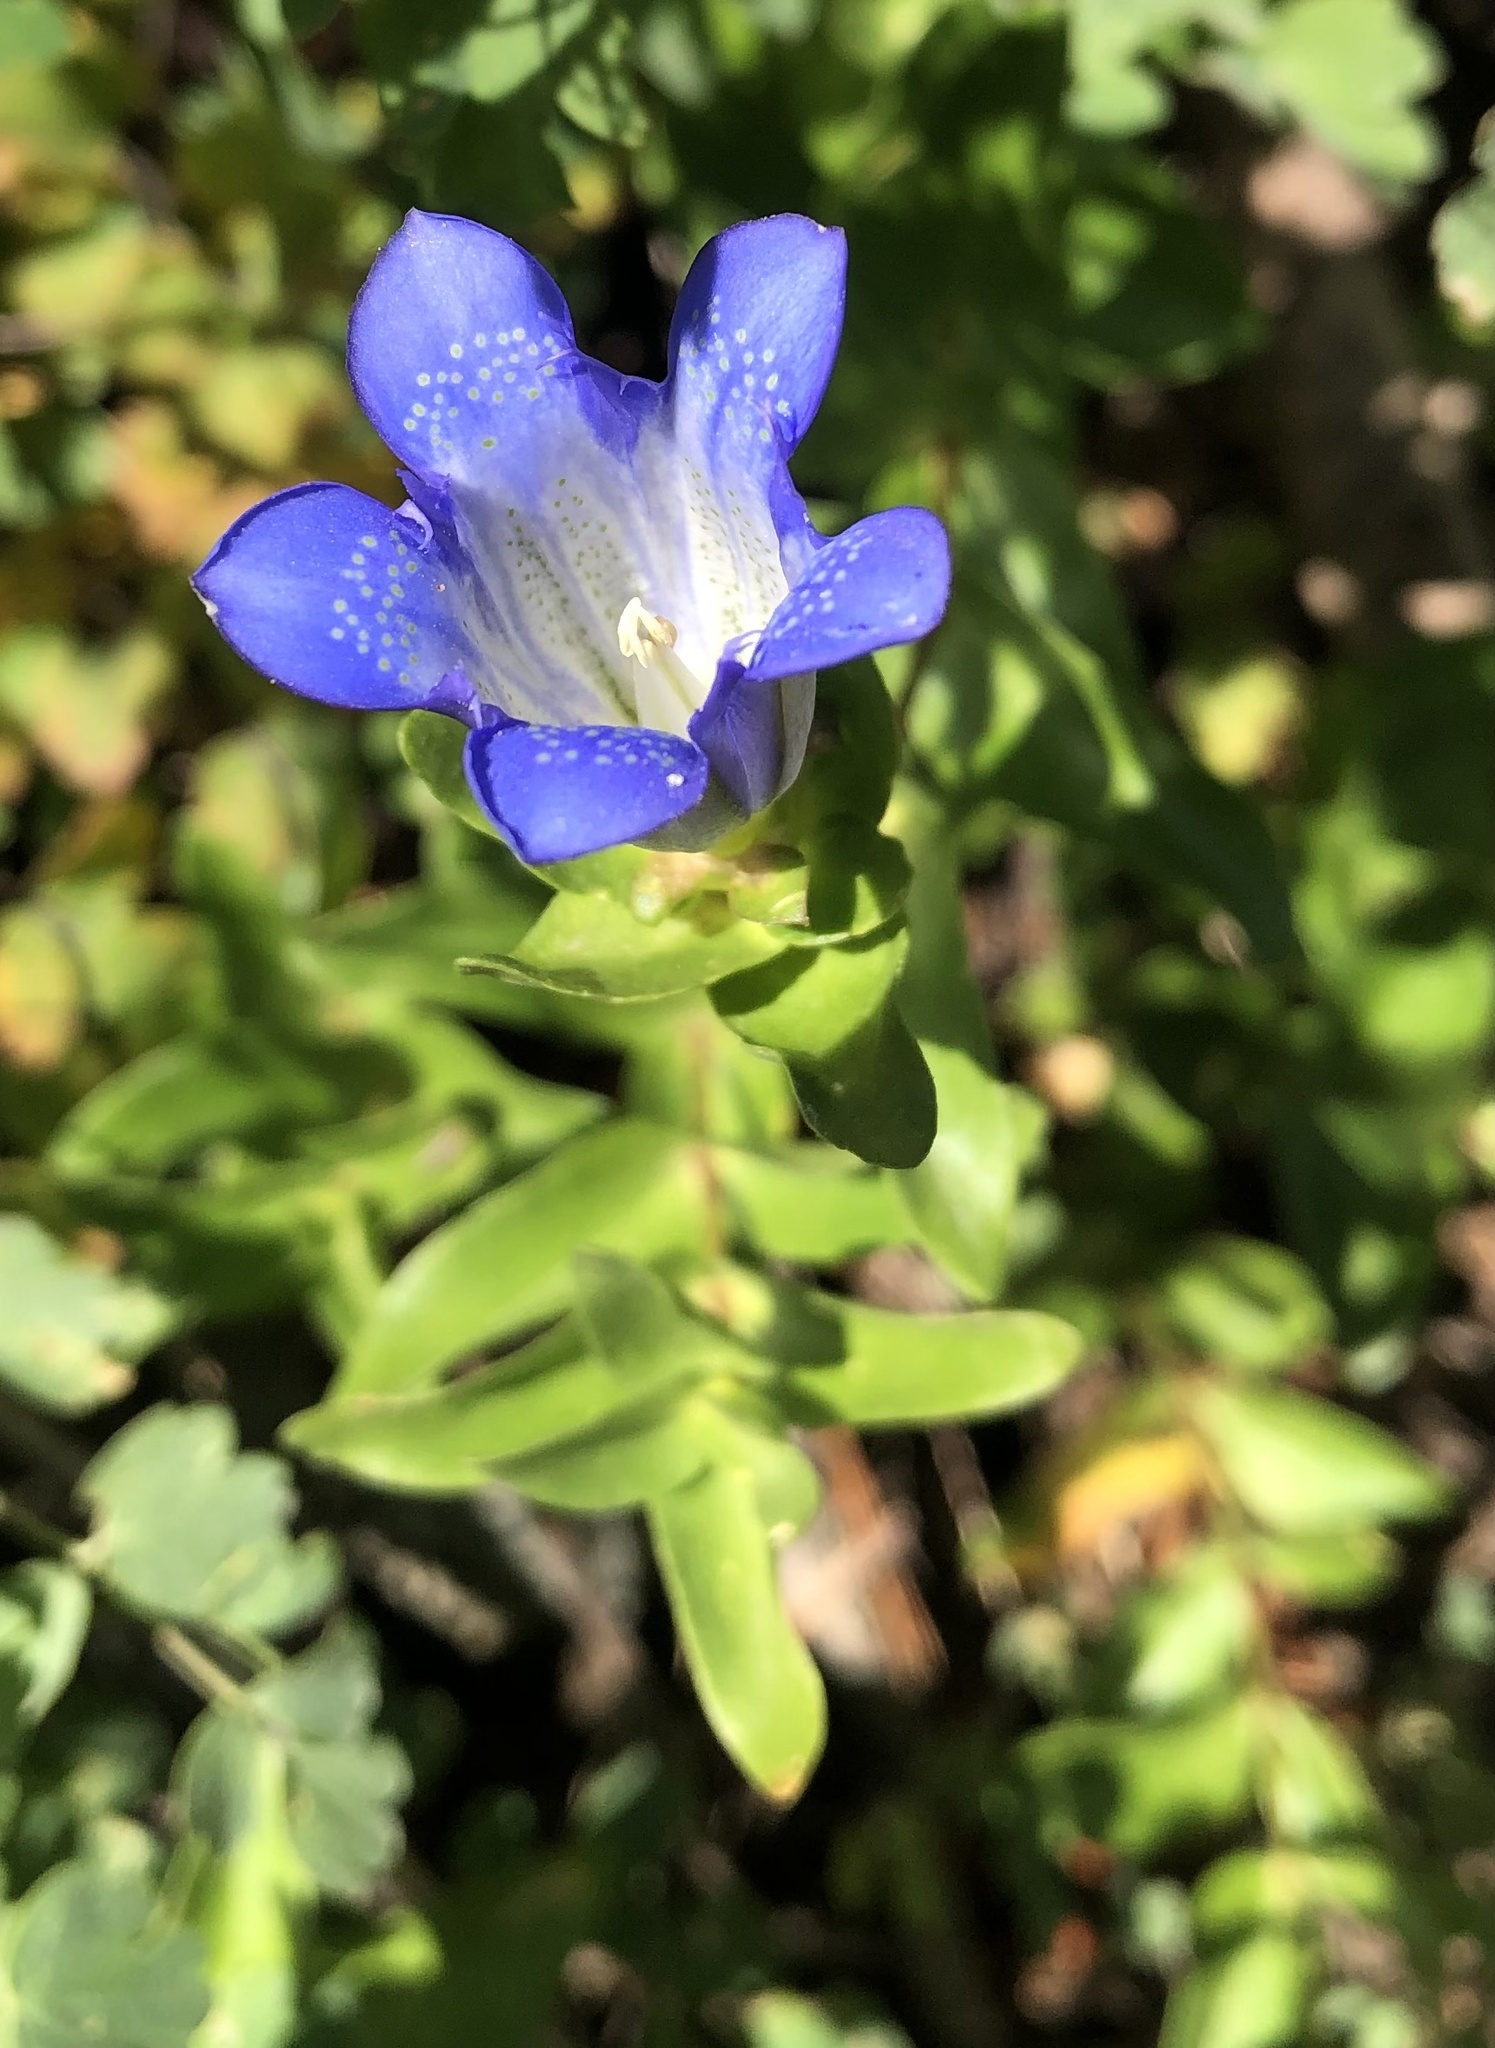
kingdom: Plantae
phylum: Tracheophyta
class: Magnoliopsida
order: Gentianales
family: Gentianaceae
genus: Gentiana
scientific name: Gentiana calycosa
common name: Rainier pleated gentian
